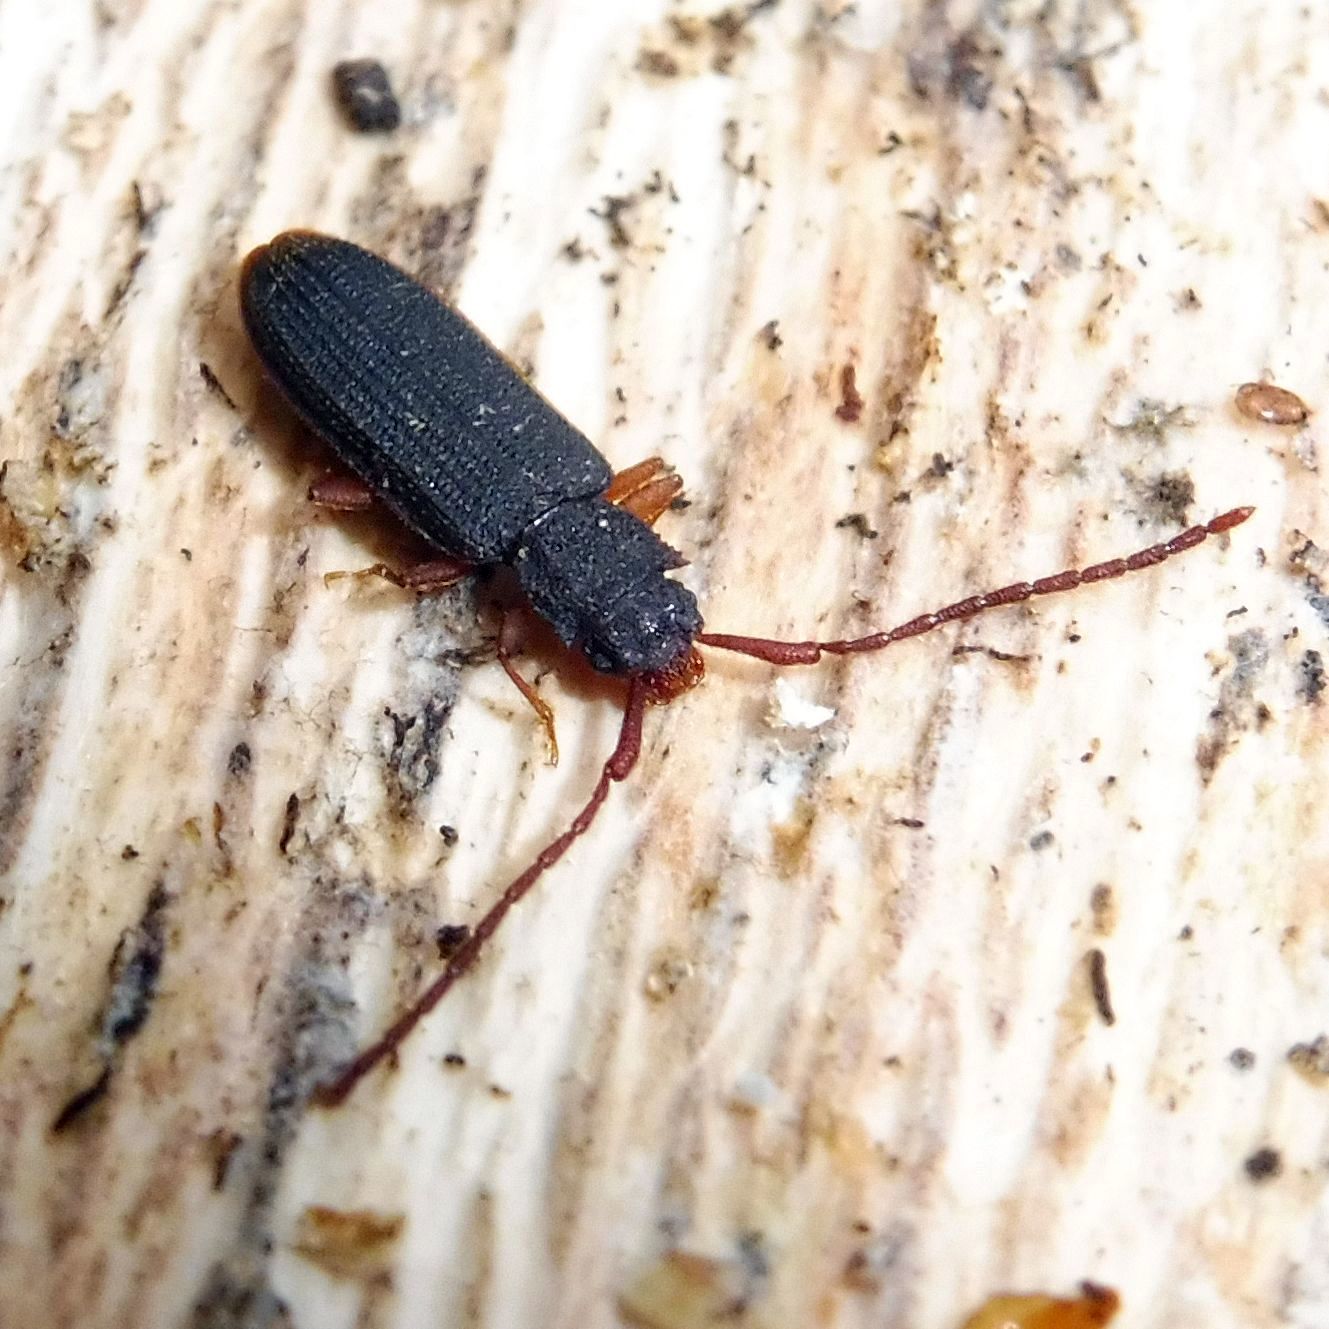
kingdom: Animalia
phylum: Arthropoda
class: Insecta
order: Coleoptera
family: Silvanidae
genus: Uleiota
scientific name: Uleiota planatus
